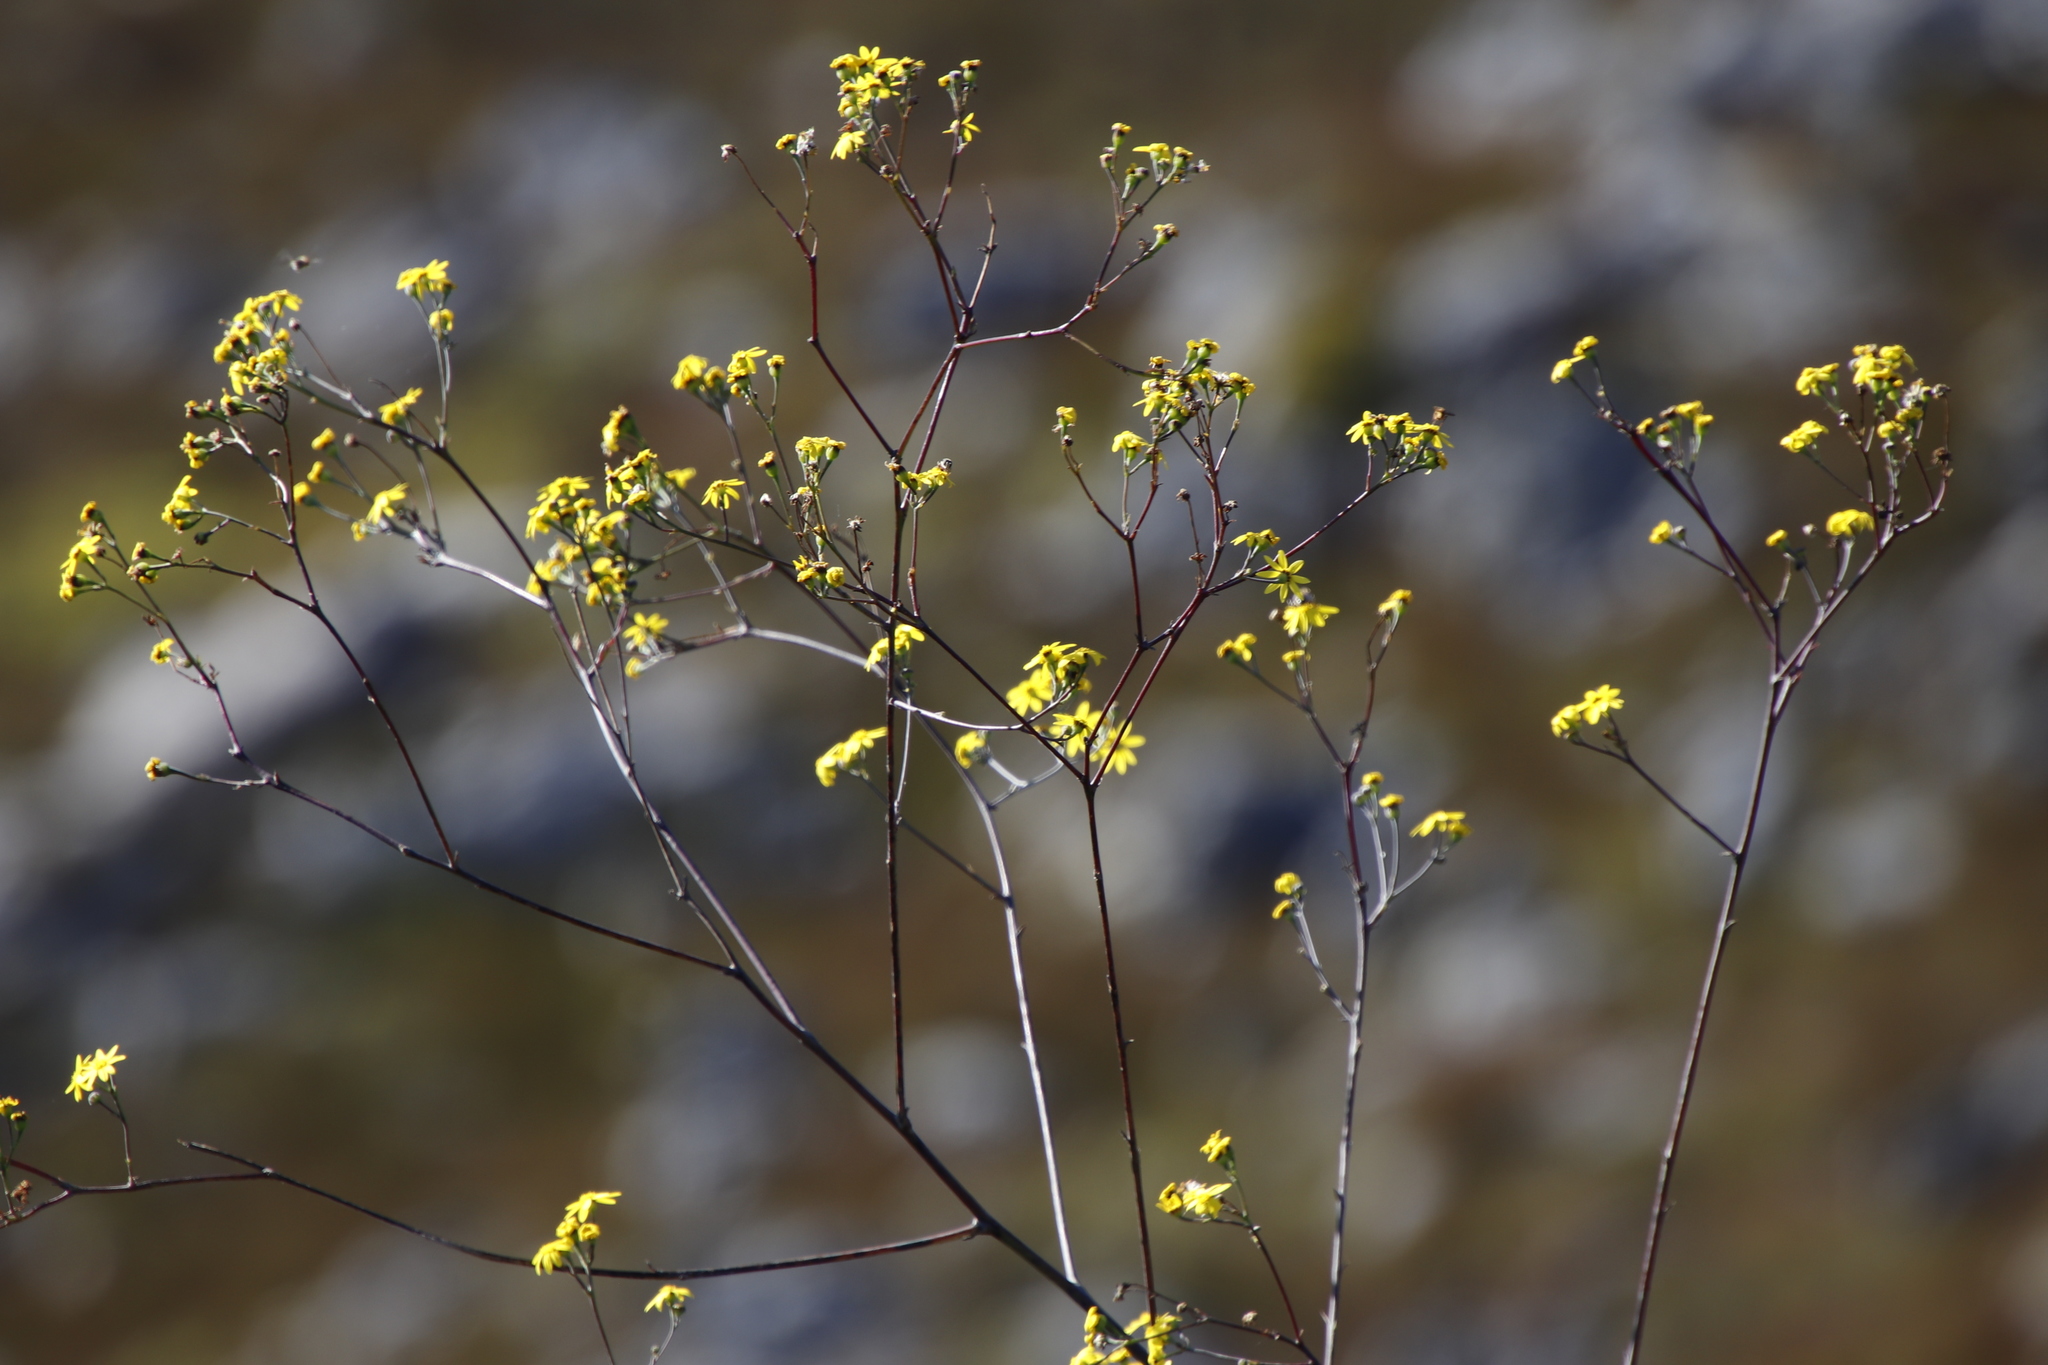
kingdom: Plantae
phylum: Tracheophyta
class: Magnoliopsida
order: Asterales
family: Asteraceae
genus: Othonna
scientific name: Othonna quinquedentata
